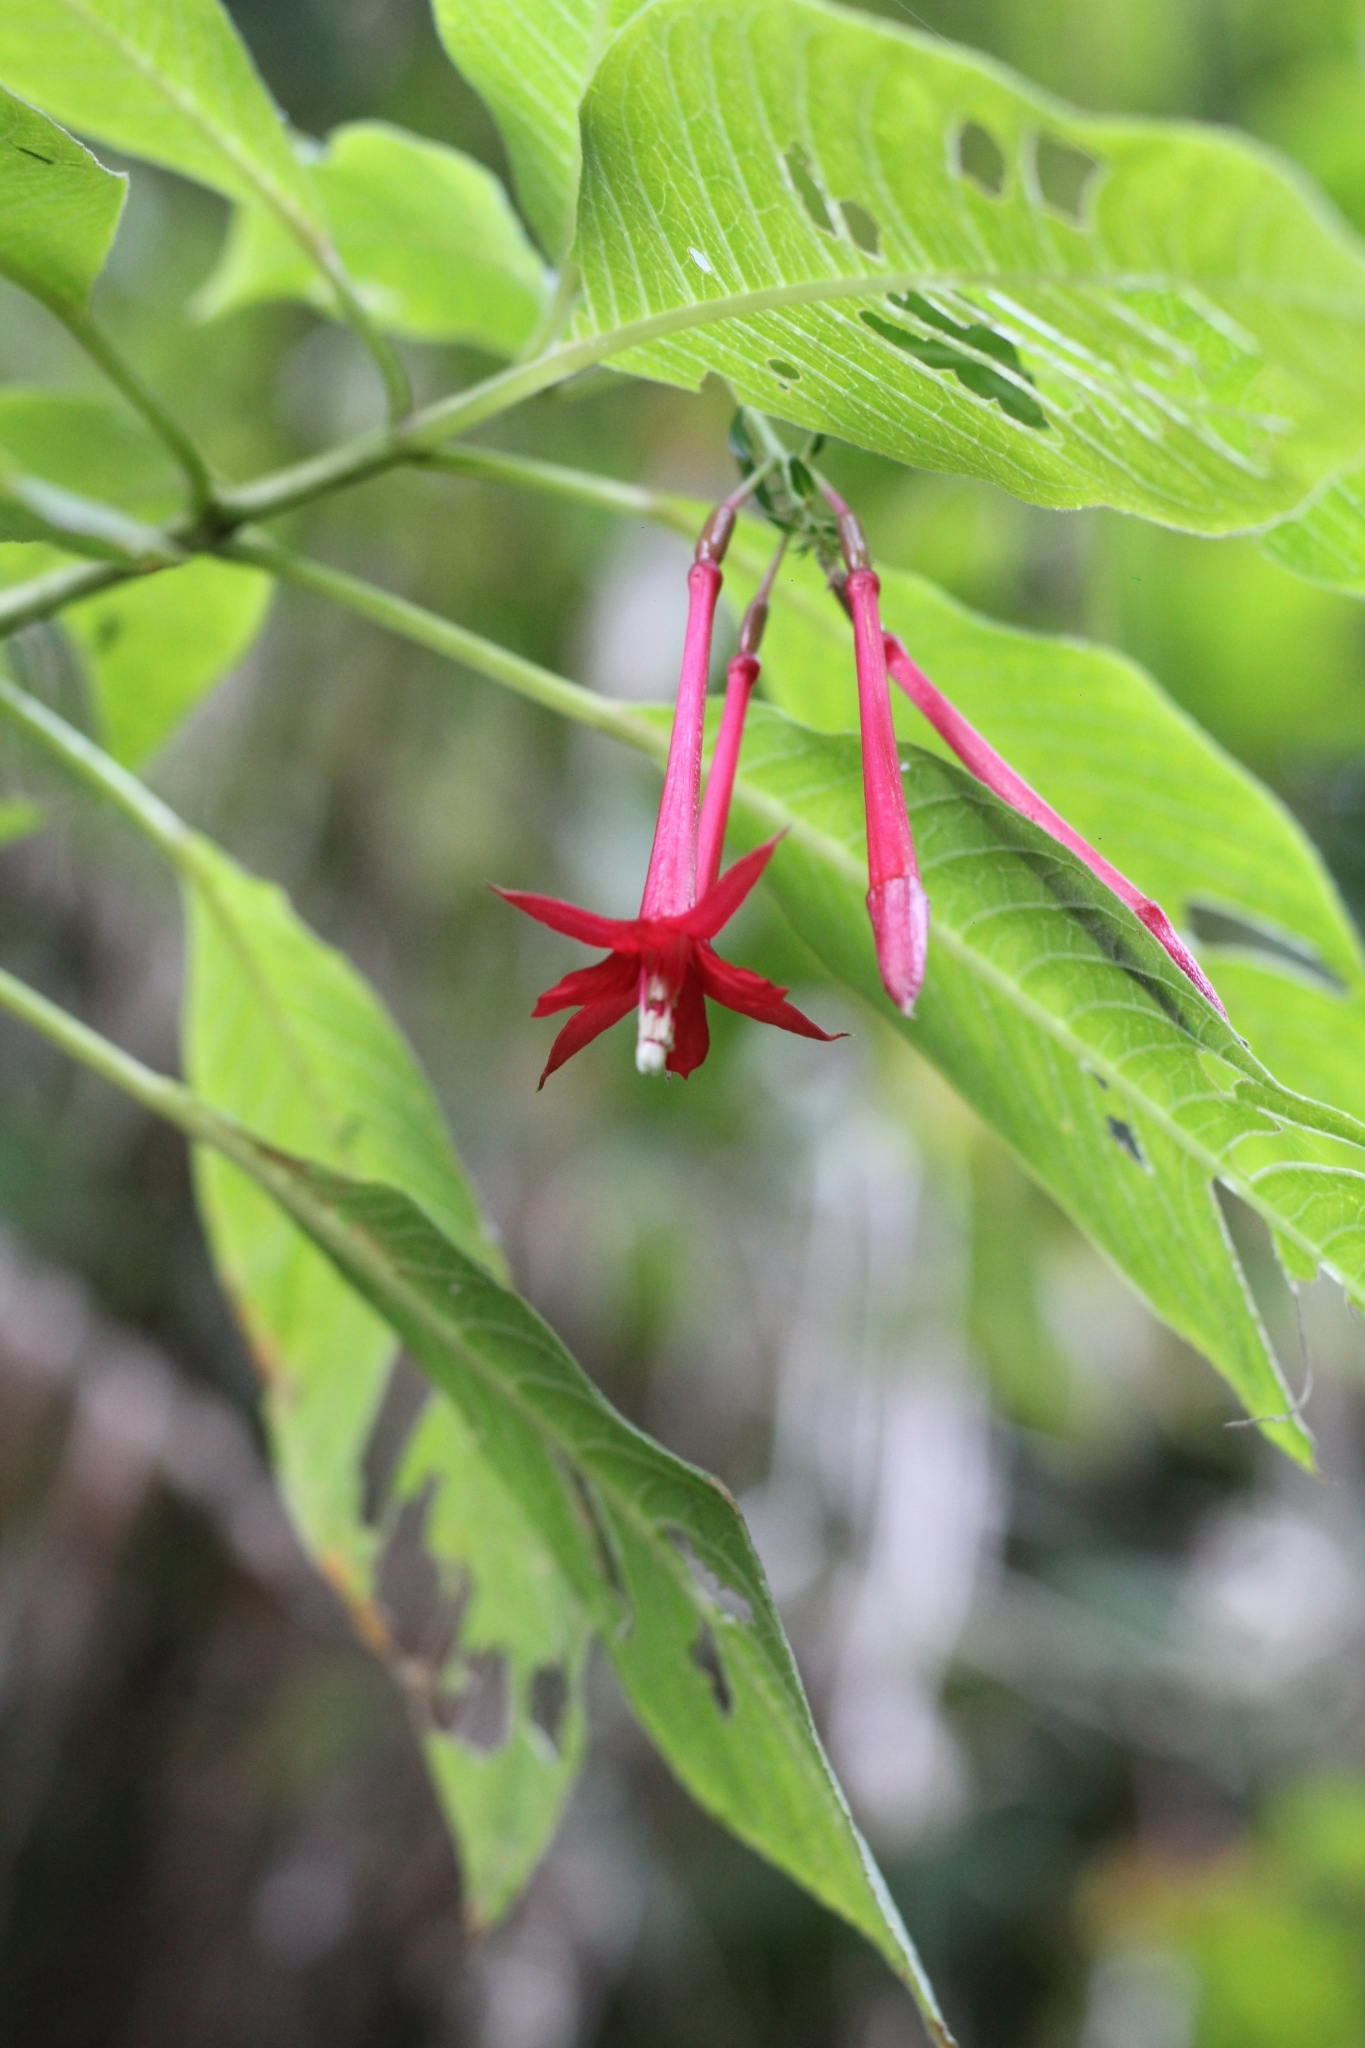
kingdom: Plantae
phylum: Tracheophyta
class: Magnoliopsida
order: Myrtales
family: Onagraceae
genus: Fuchsia
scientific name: Fuchsia boliviana
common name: Bolivian fuchsia
